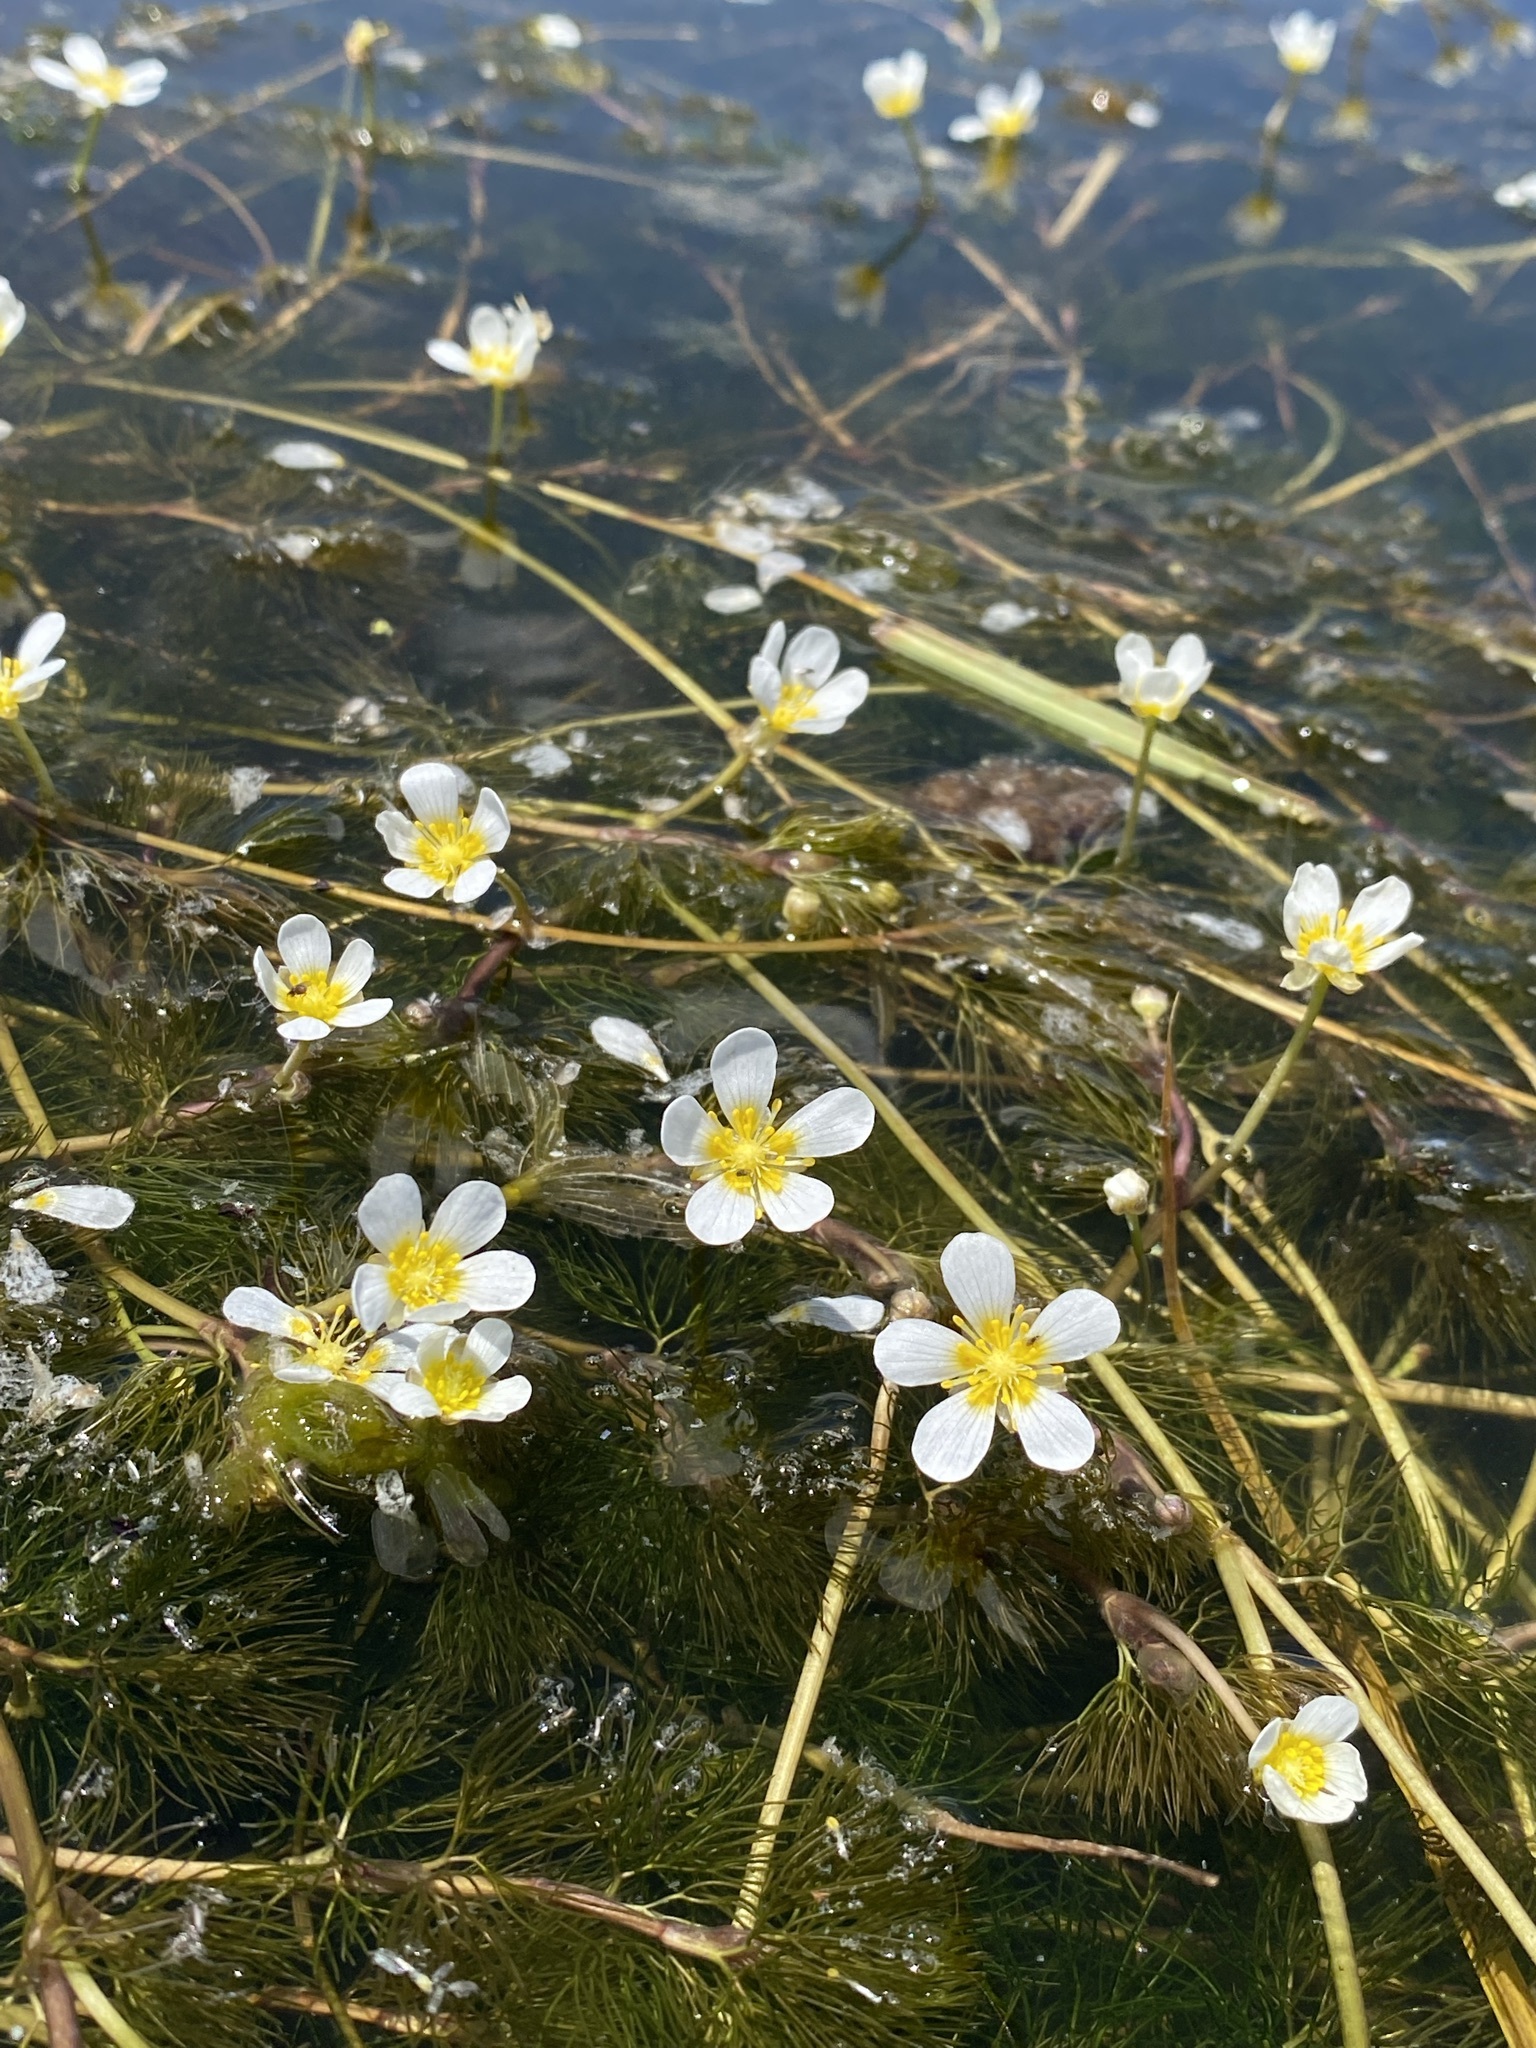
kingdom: Plantae
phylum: Tracheophyta
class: Magnoliopsida
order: Ranunculales
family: Ranunculaceae
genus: Ranunculus
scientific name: Ranunculus aquatilis
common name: Common water-crowfoot
